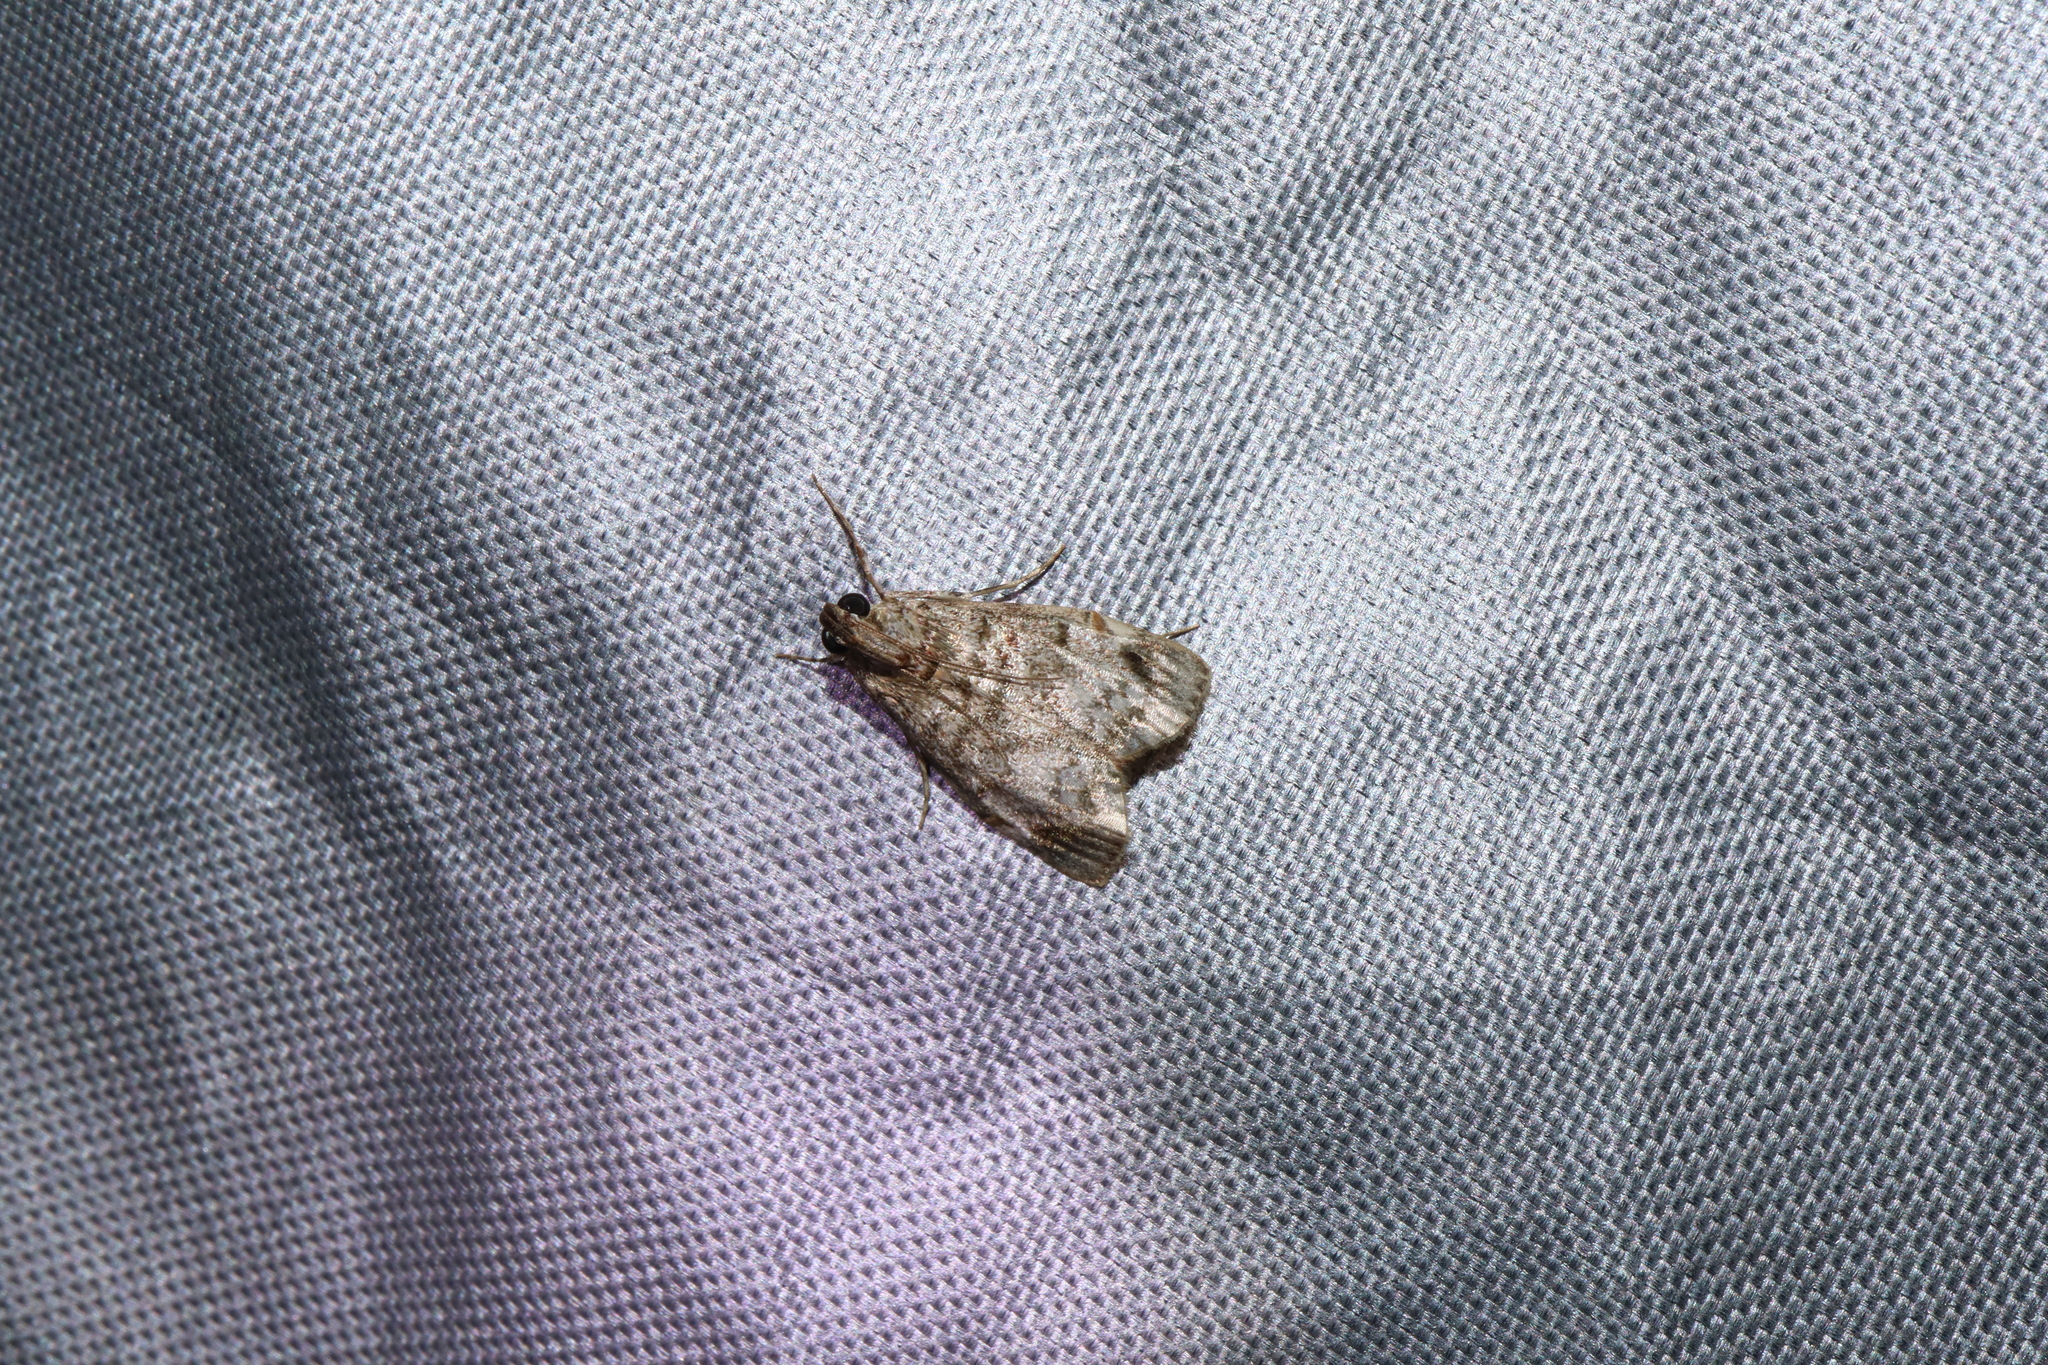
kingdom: Animalia
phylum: Arthropoda
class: Insecta
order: Lepidoptera
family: Pyralidae
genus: Stericta
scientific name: Stericta concisella
